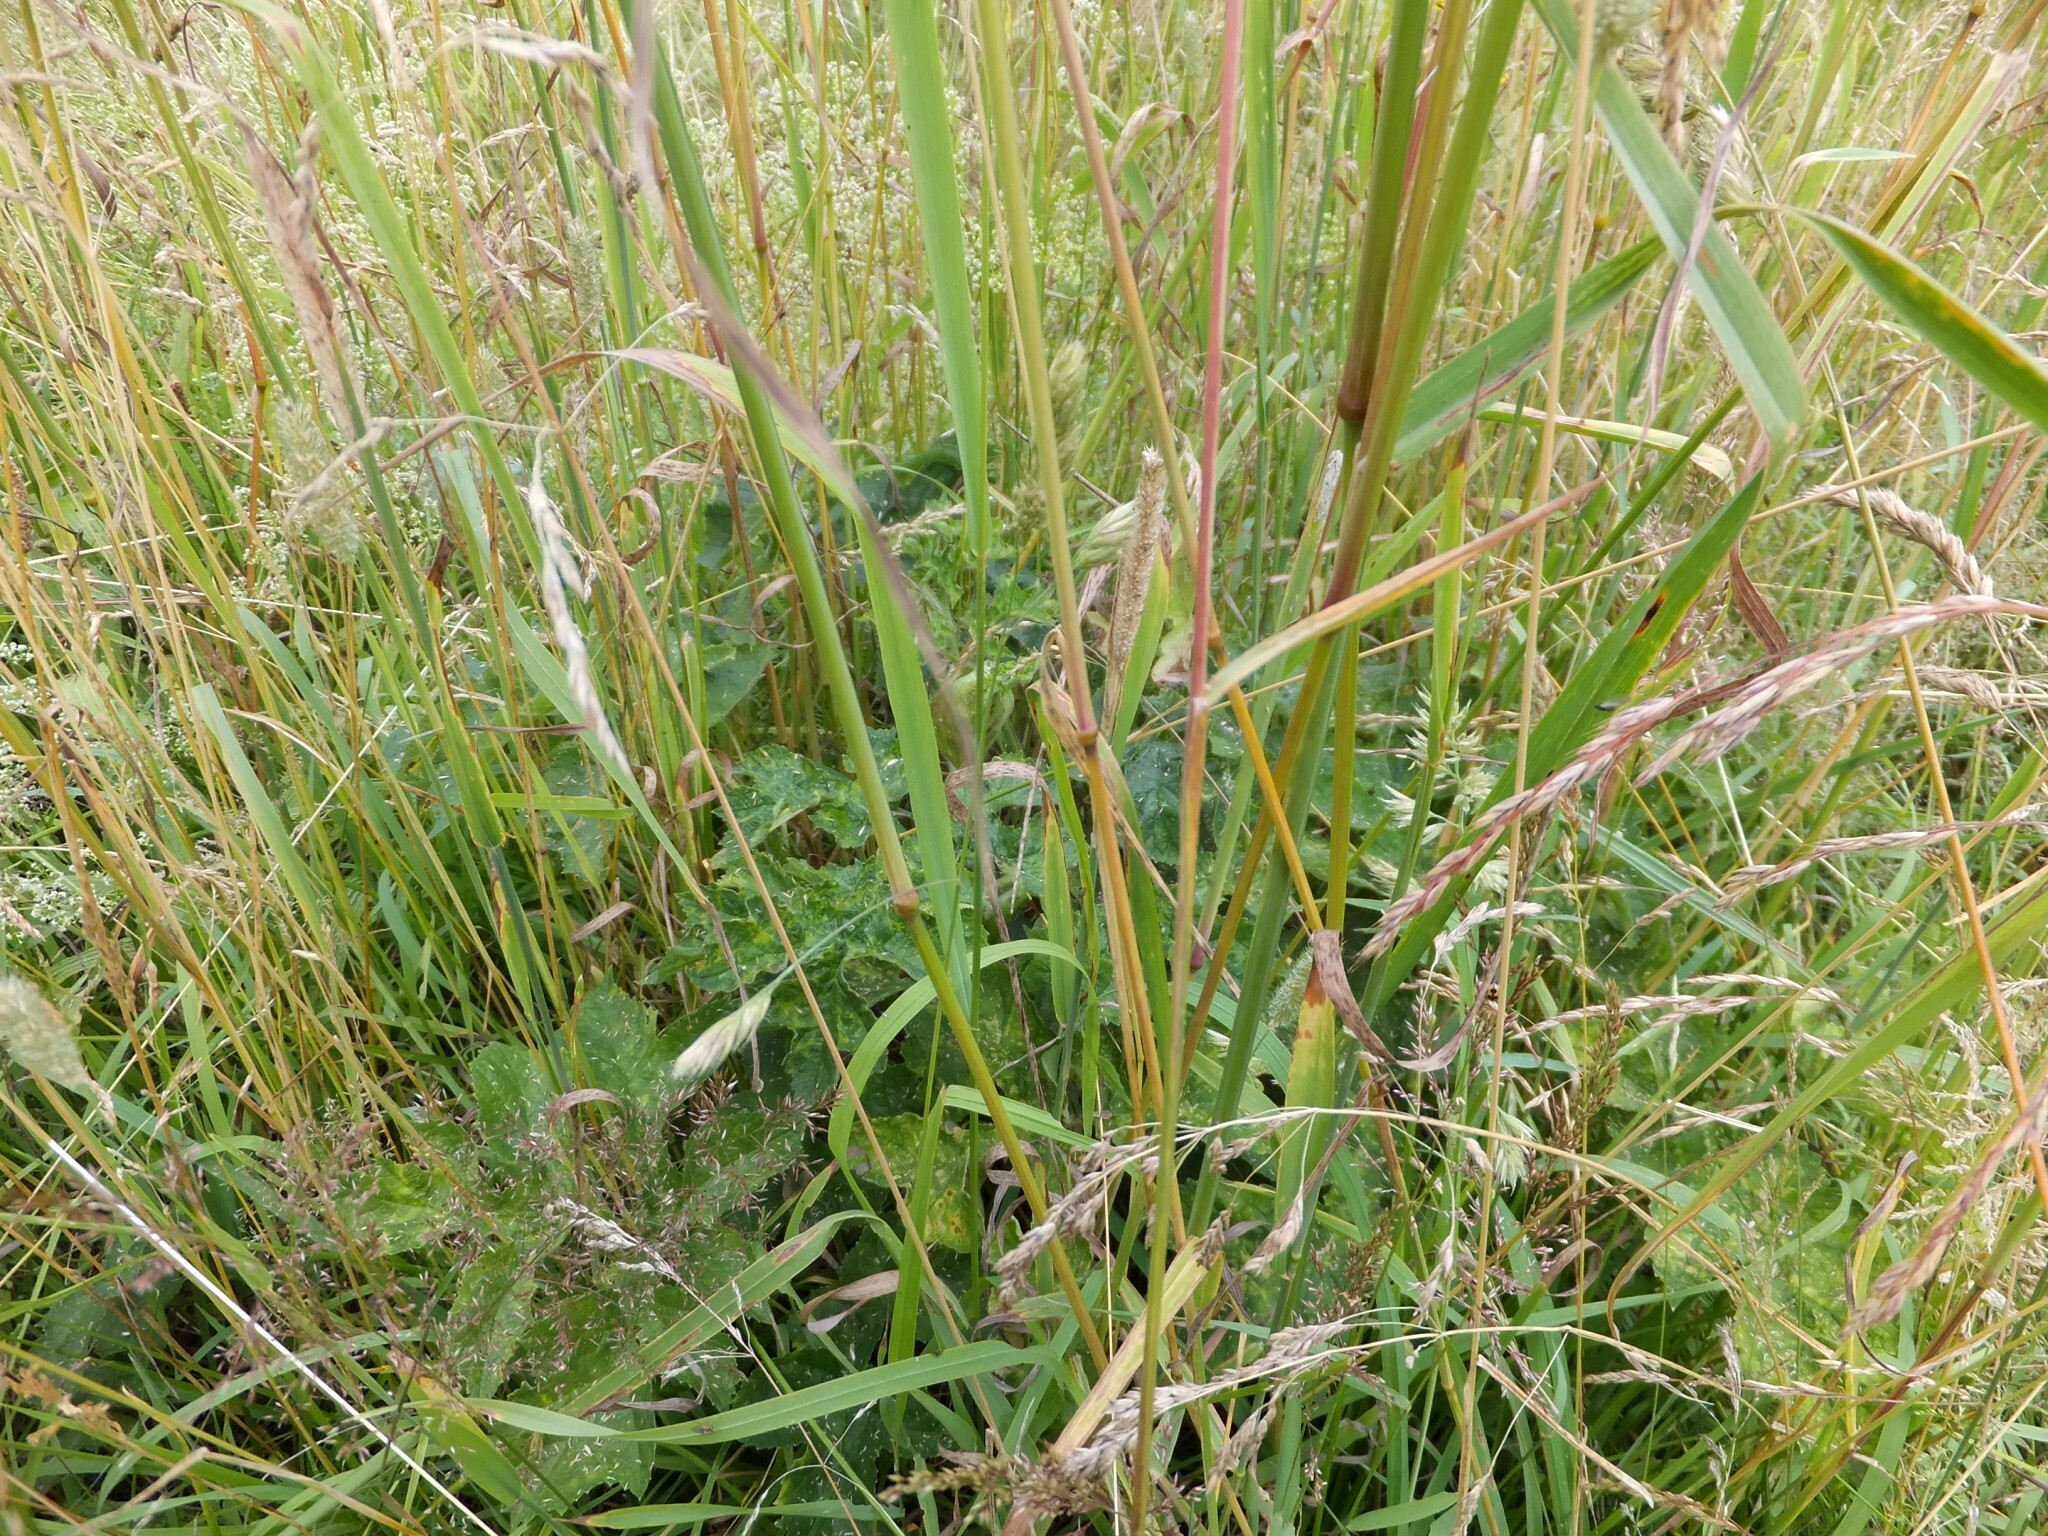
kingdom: Plantae
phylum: Tracheophyta
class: Liliopsida
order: Poales
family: Poaceae
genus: Dactylis
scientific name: Dactylis glomerata
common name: Orchardgrass
